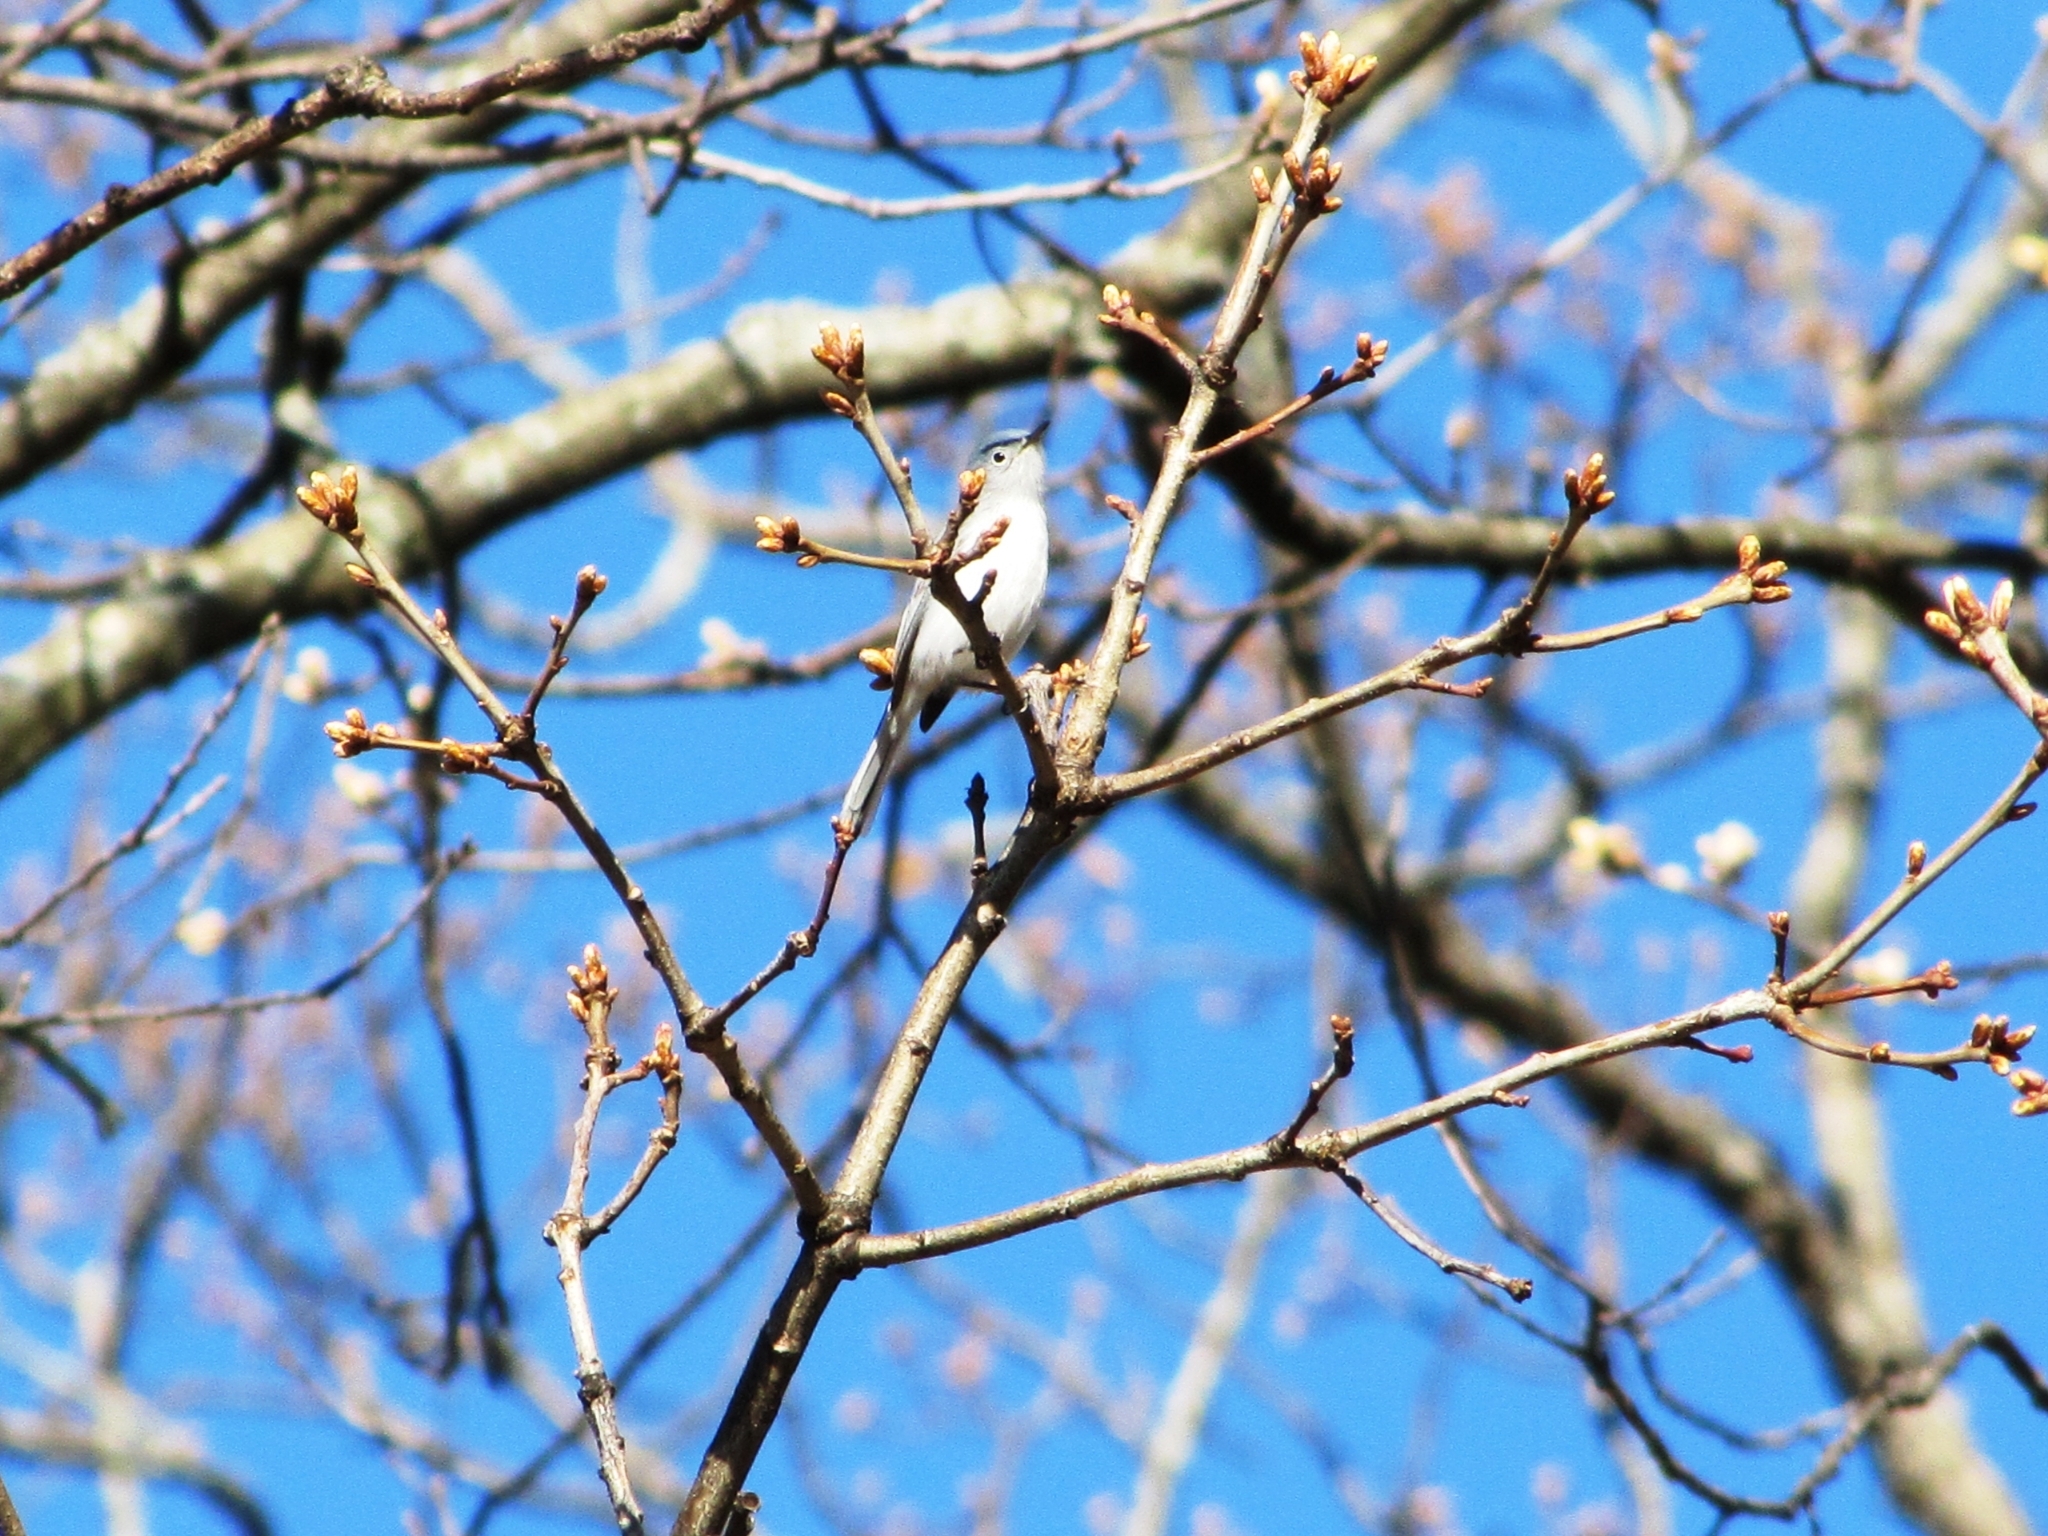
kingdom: Animalia
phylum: Chordata
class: Aves
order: Passeriformes
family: Polioptilidae
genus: Polioptila
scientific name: Polioptila caerulea
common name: Blue-gray gnatcatcher
